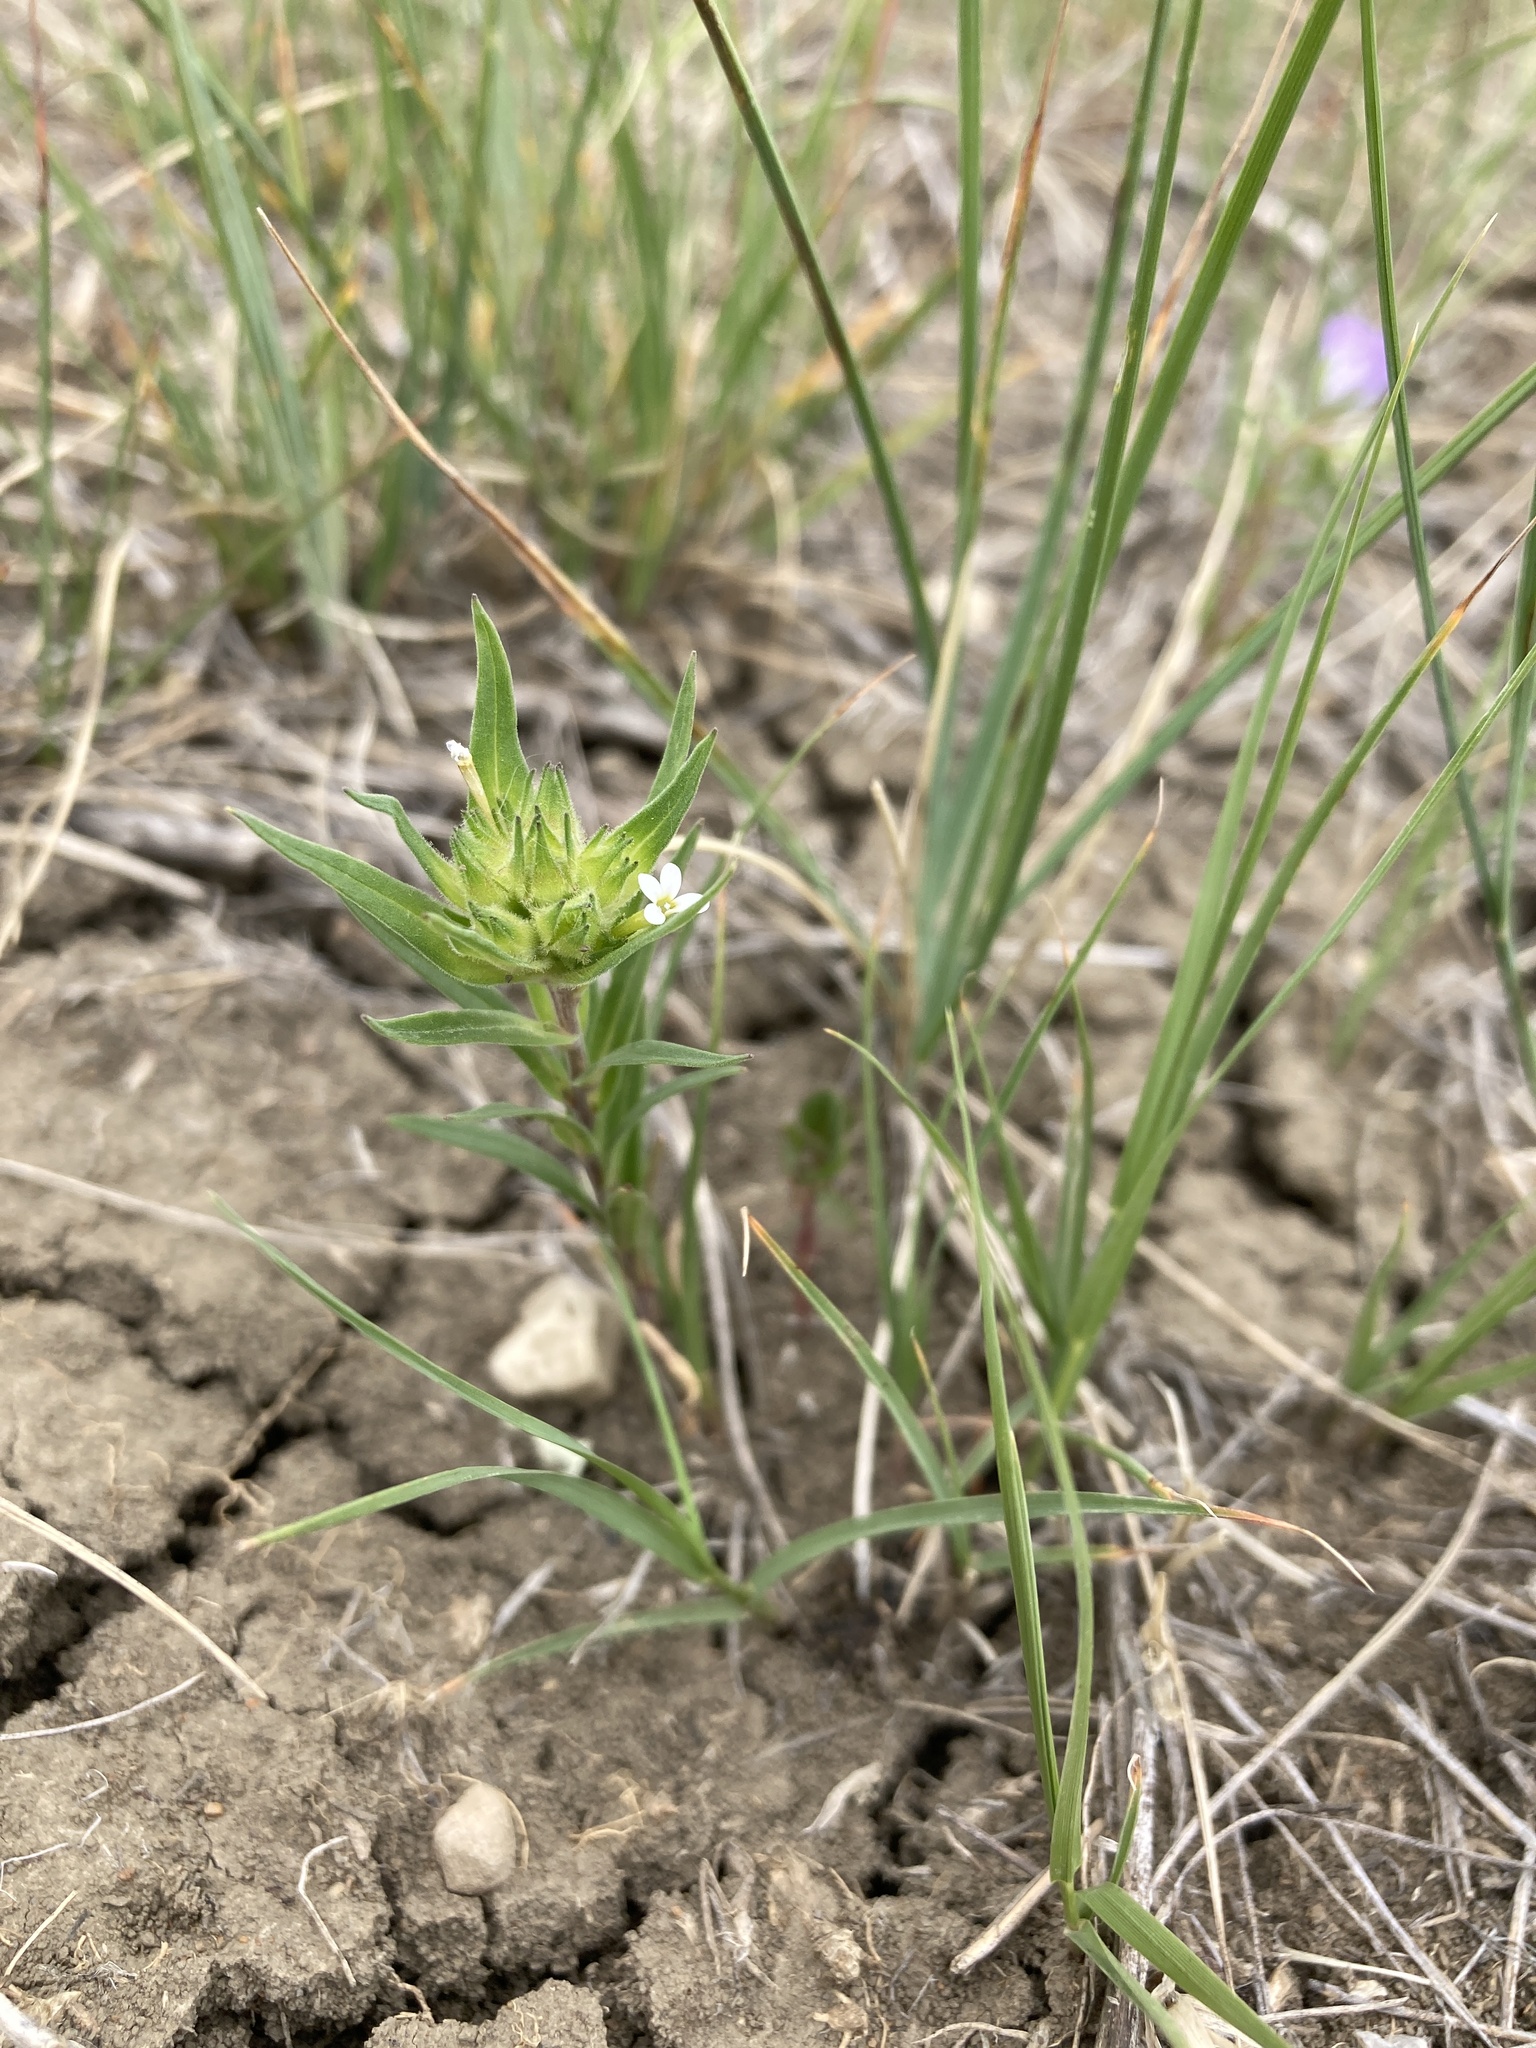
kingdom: Plantae
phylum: Tracheophyta
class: Magnoliopsida
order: Ericales
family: Polemoniaceae
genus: Collomia
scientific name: Collomia linearis
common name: Tiny trumpet
